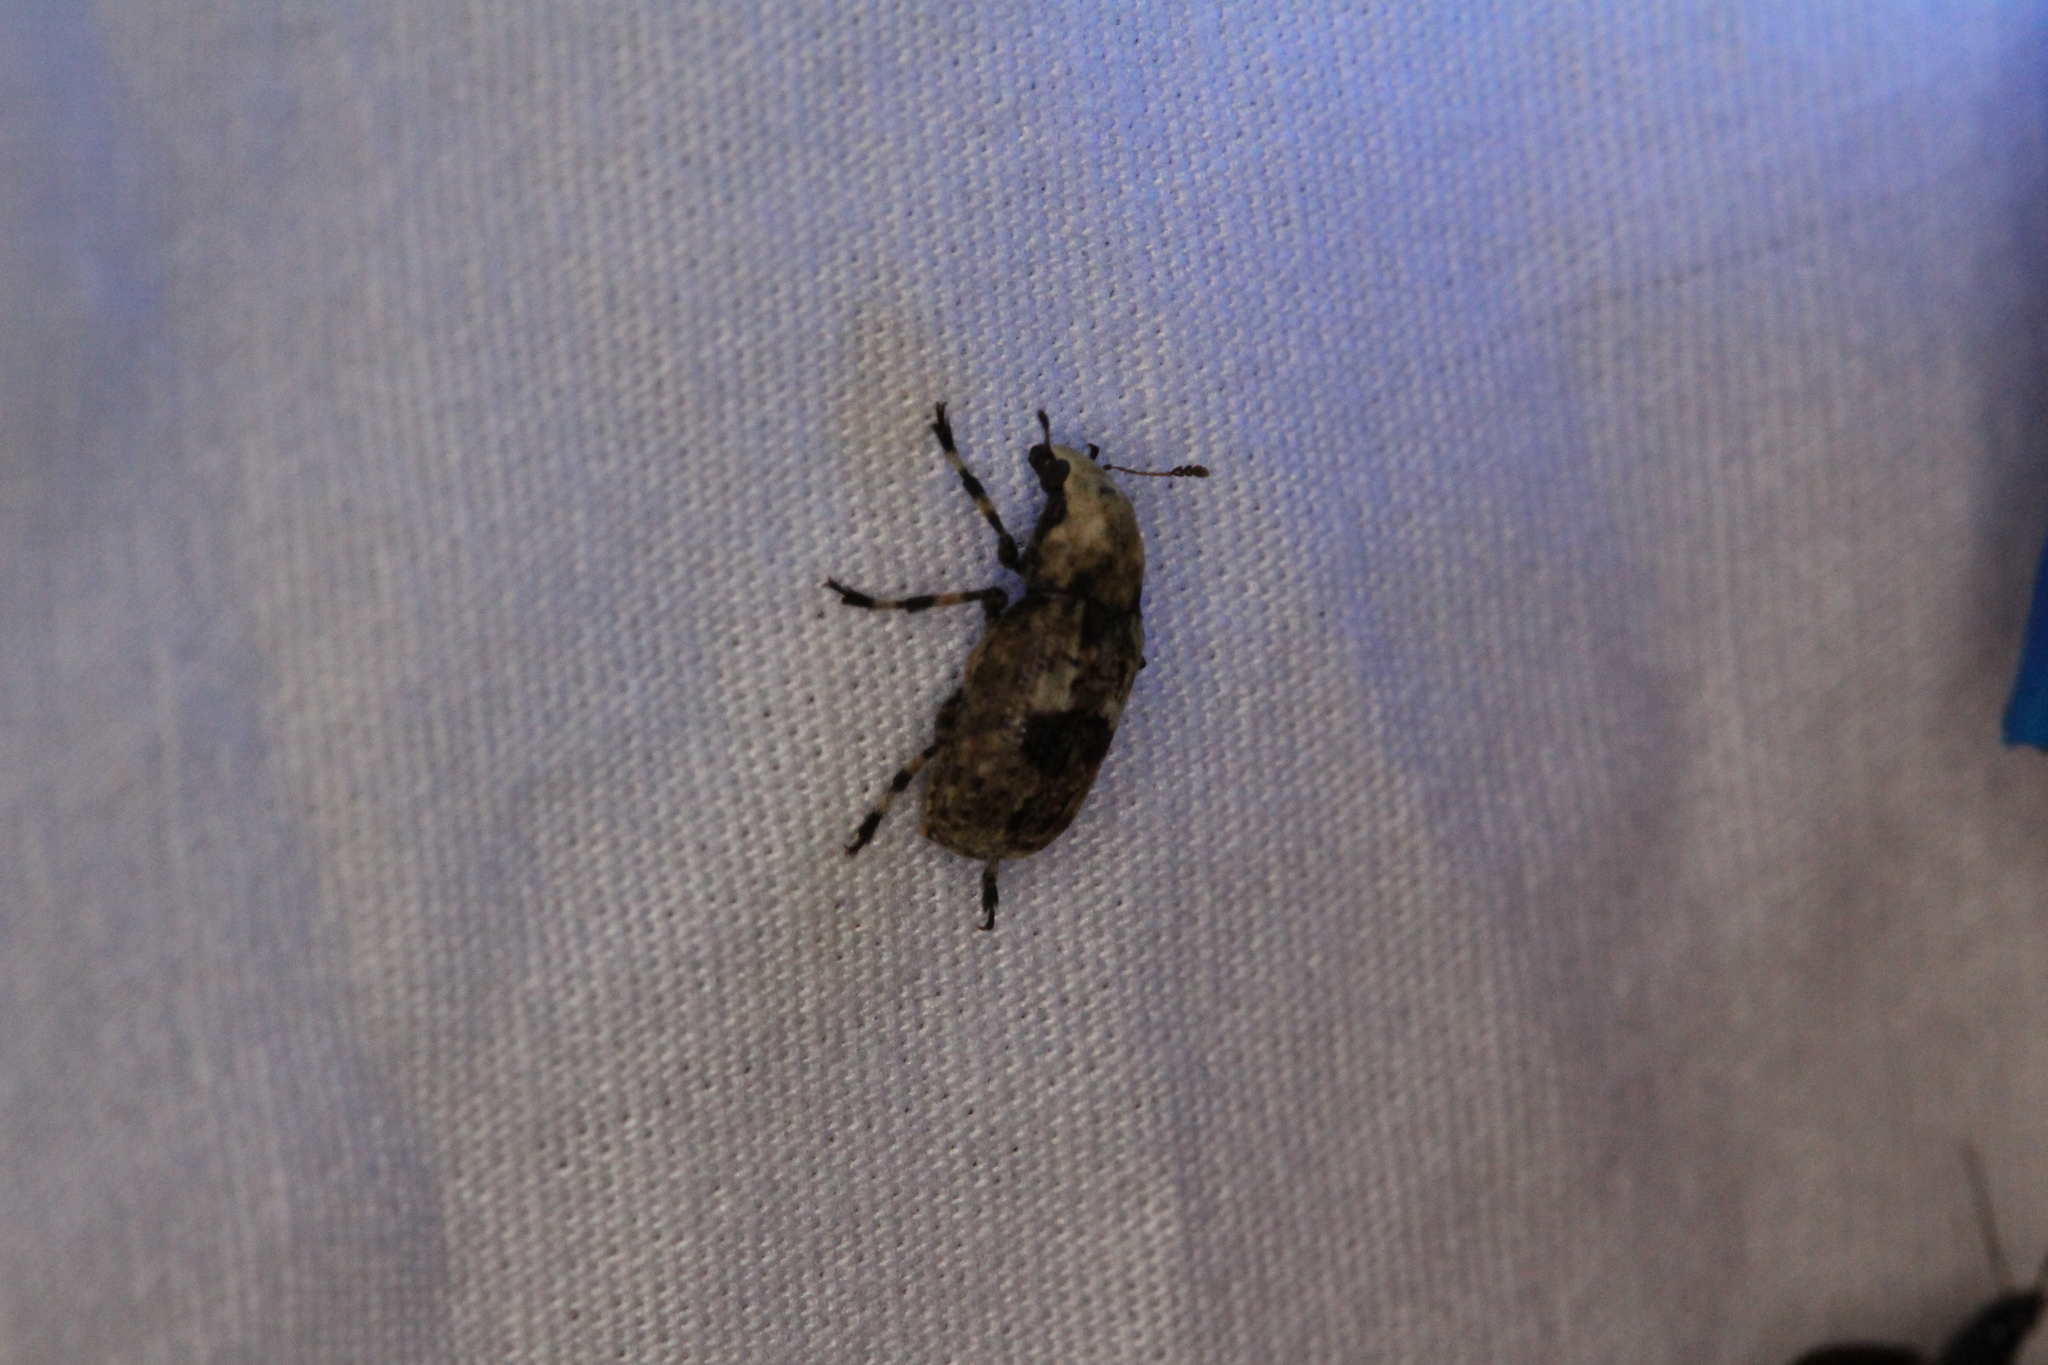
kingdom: Animalia
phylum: Arthropoda
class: Insecta
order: Coleoptera
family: Anthribidae
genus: Euparius
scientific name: Euparius marmoreus
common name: Marbled fungus weevil
